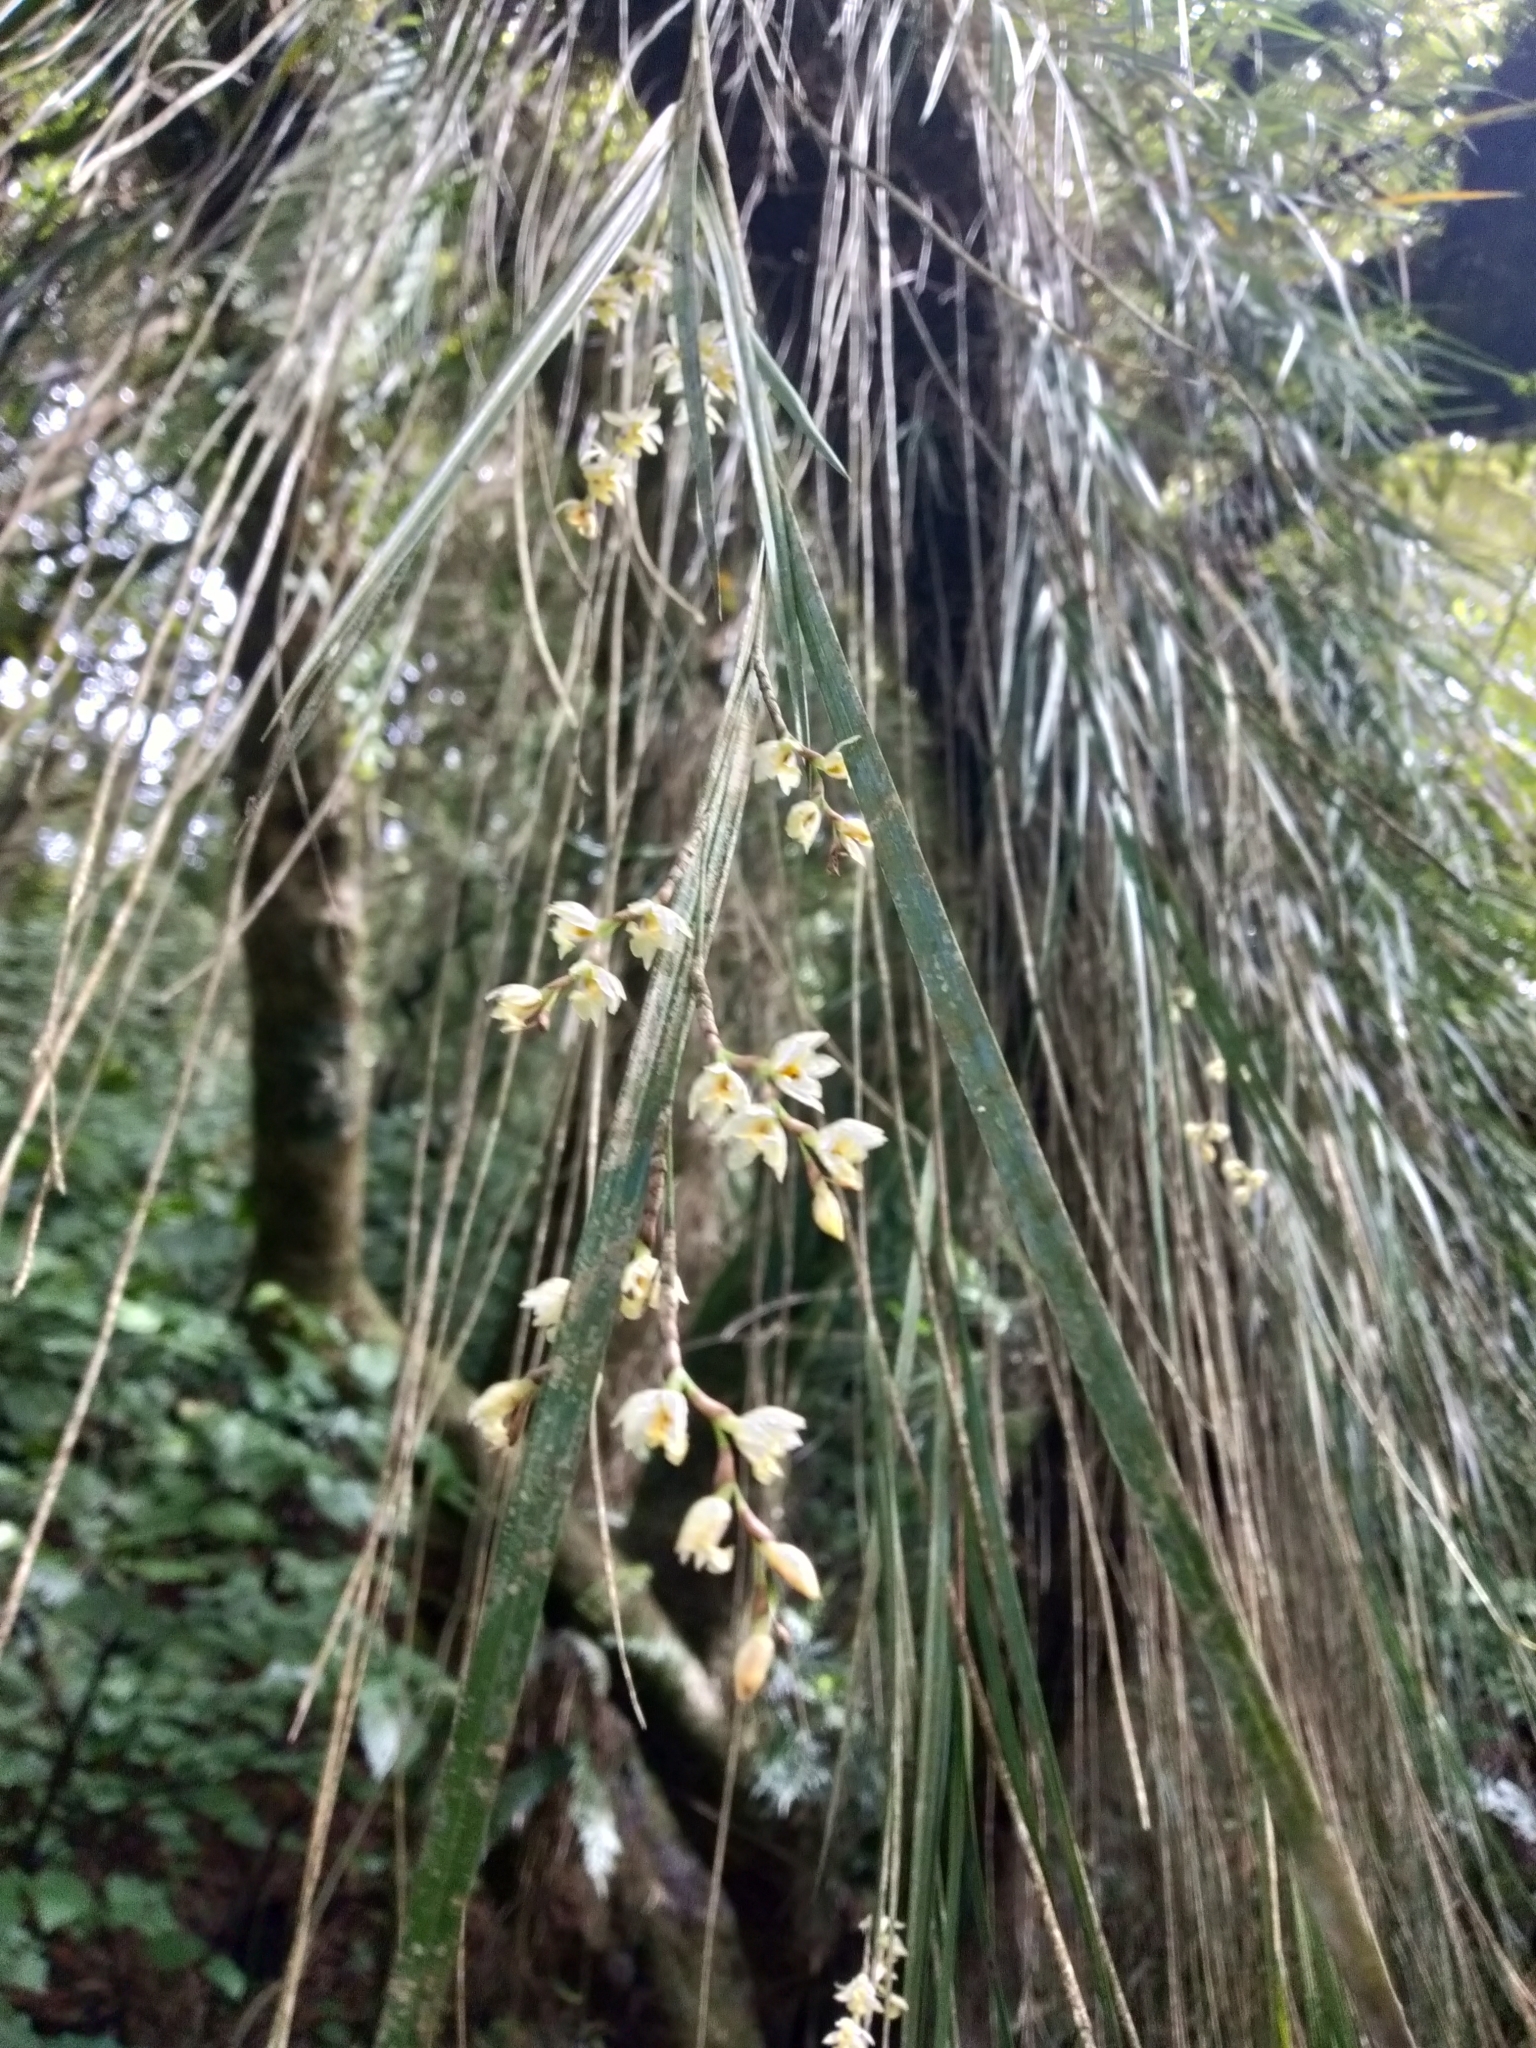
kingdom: Plantae
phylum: Tracheophyta
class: Liliopsida
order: Asparagales
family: Orchidaceae
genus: Earina
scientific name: Earina mucronata
